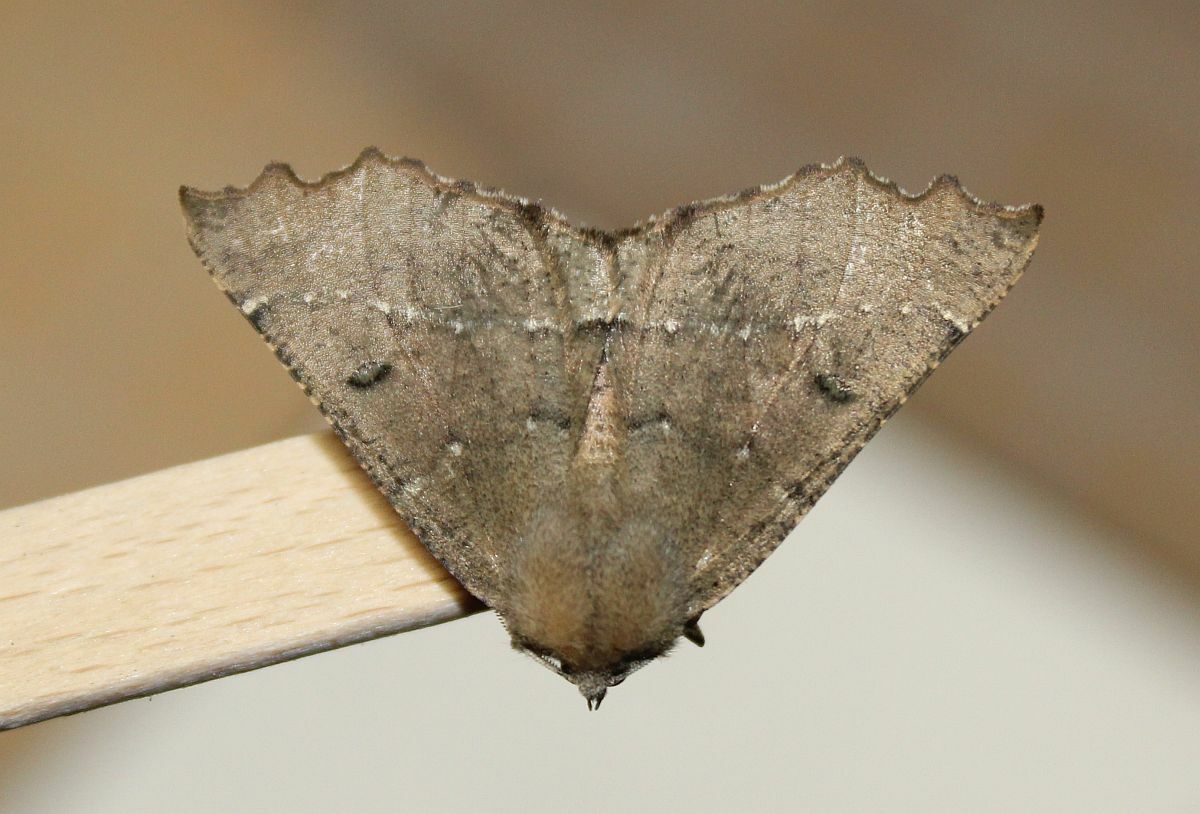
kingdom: Animalia
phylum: Arthropoda
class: Insecta
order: Lepidoptera
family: Geometridae
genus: Odontopera
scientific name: Odontopera bidentata
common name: Scalloped hazel
